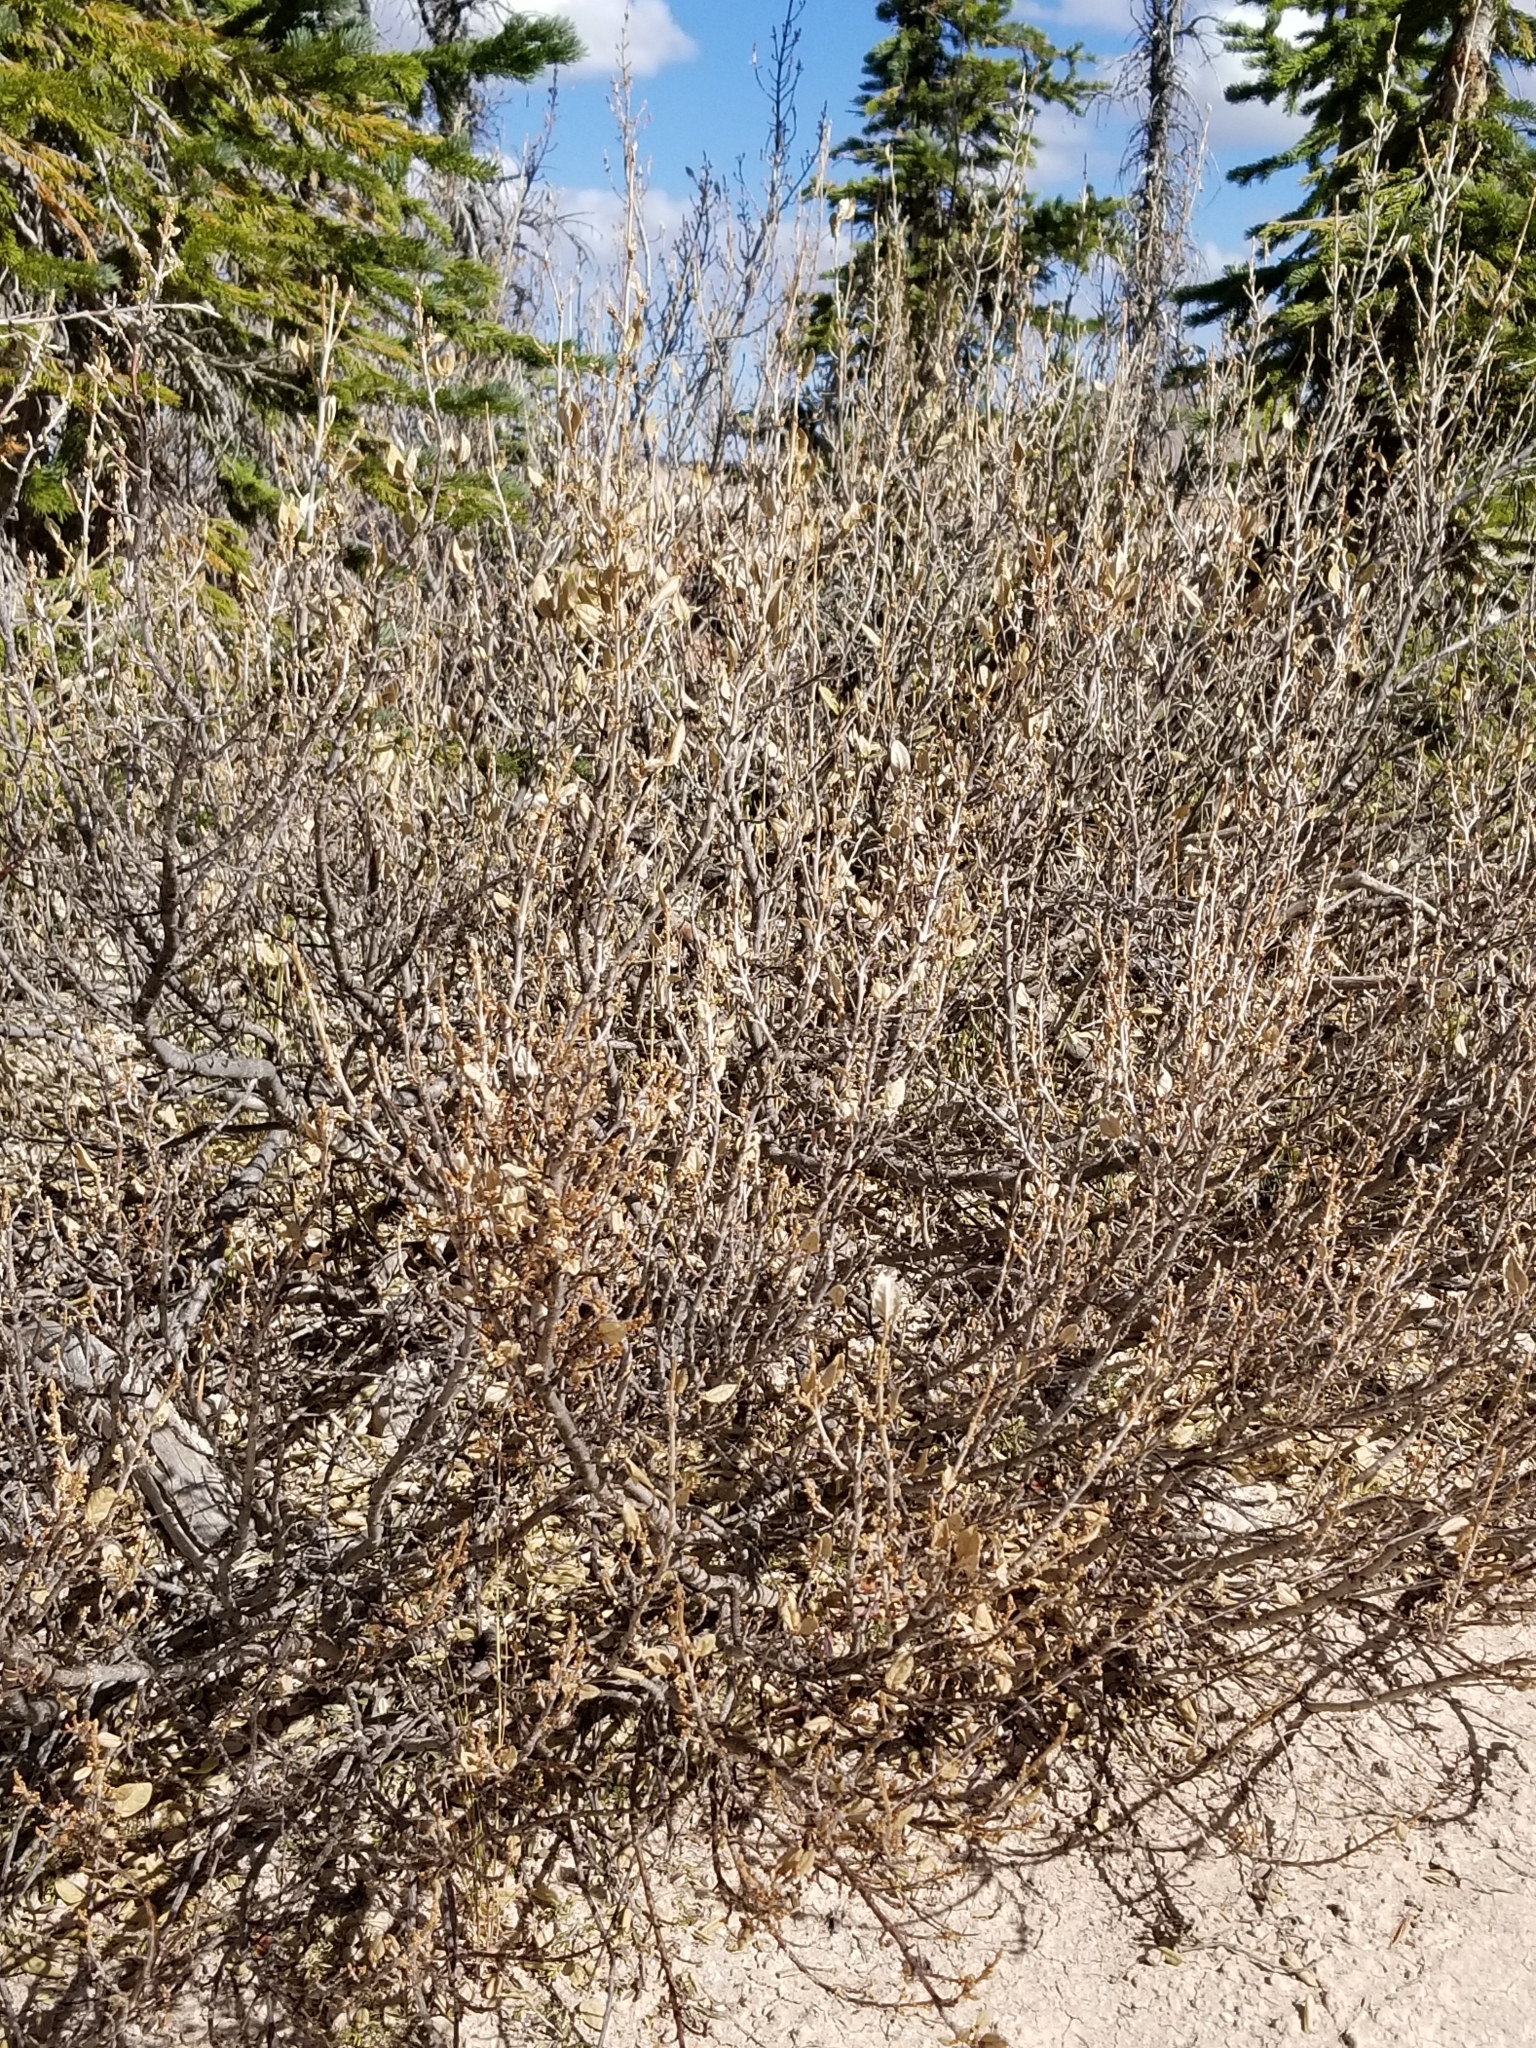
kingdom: Plantae
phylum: Tracheophyta
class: Magnoliopsida
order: Rosales
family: Elaeagnaceae
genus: Shepherdia
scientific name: Shepherdia canadensis
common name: Soapberry
